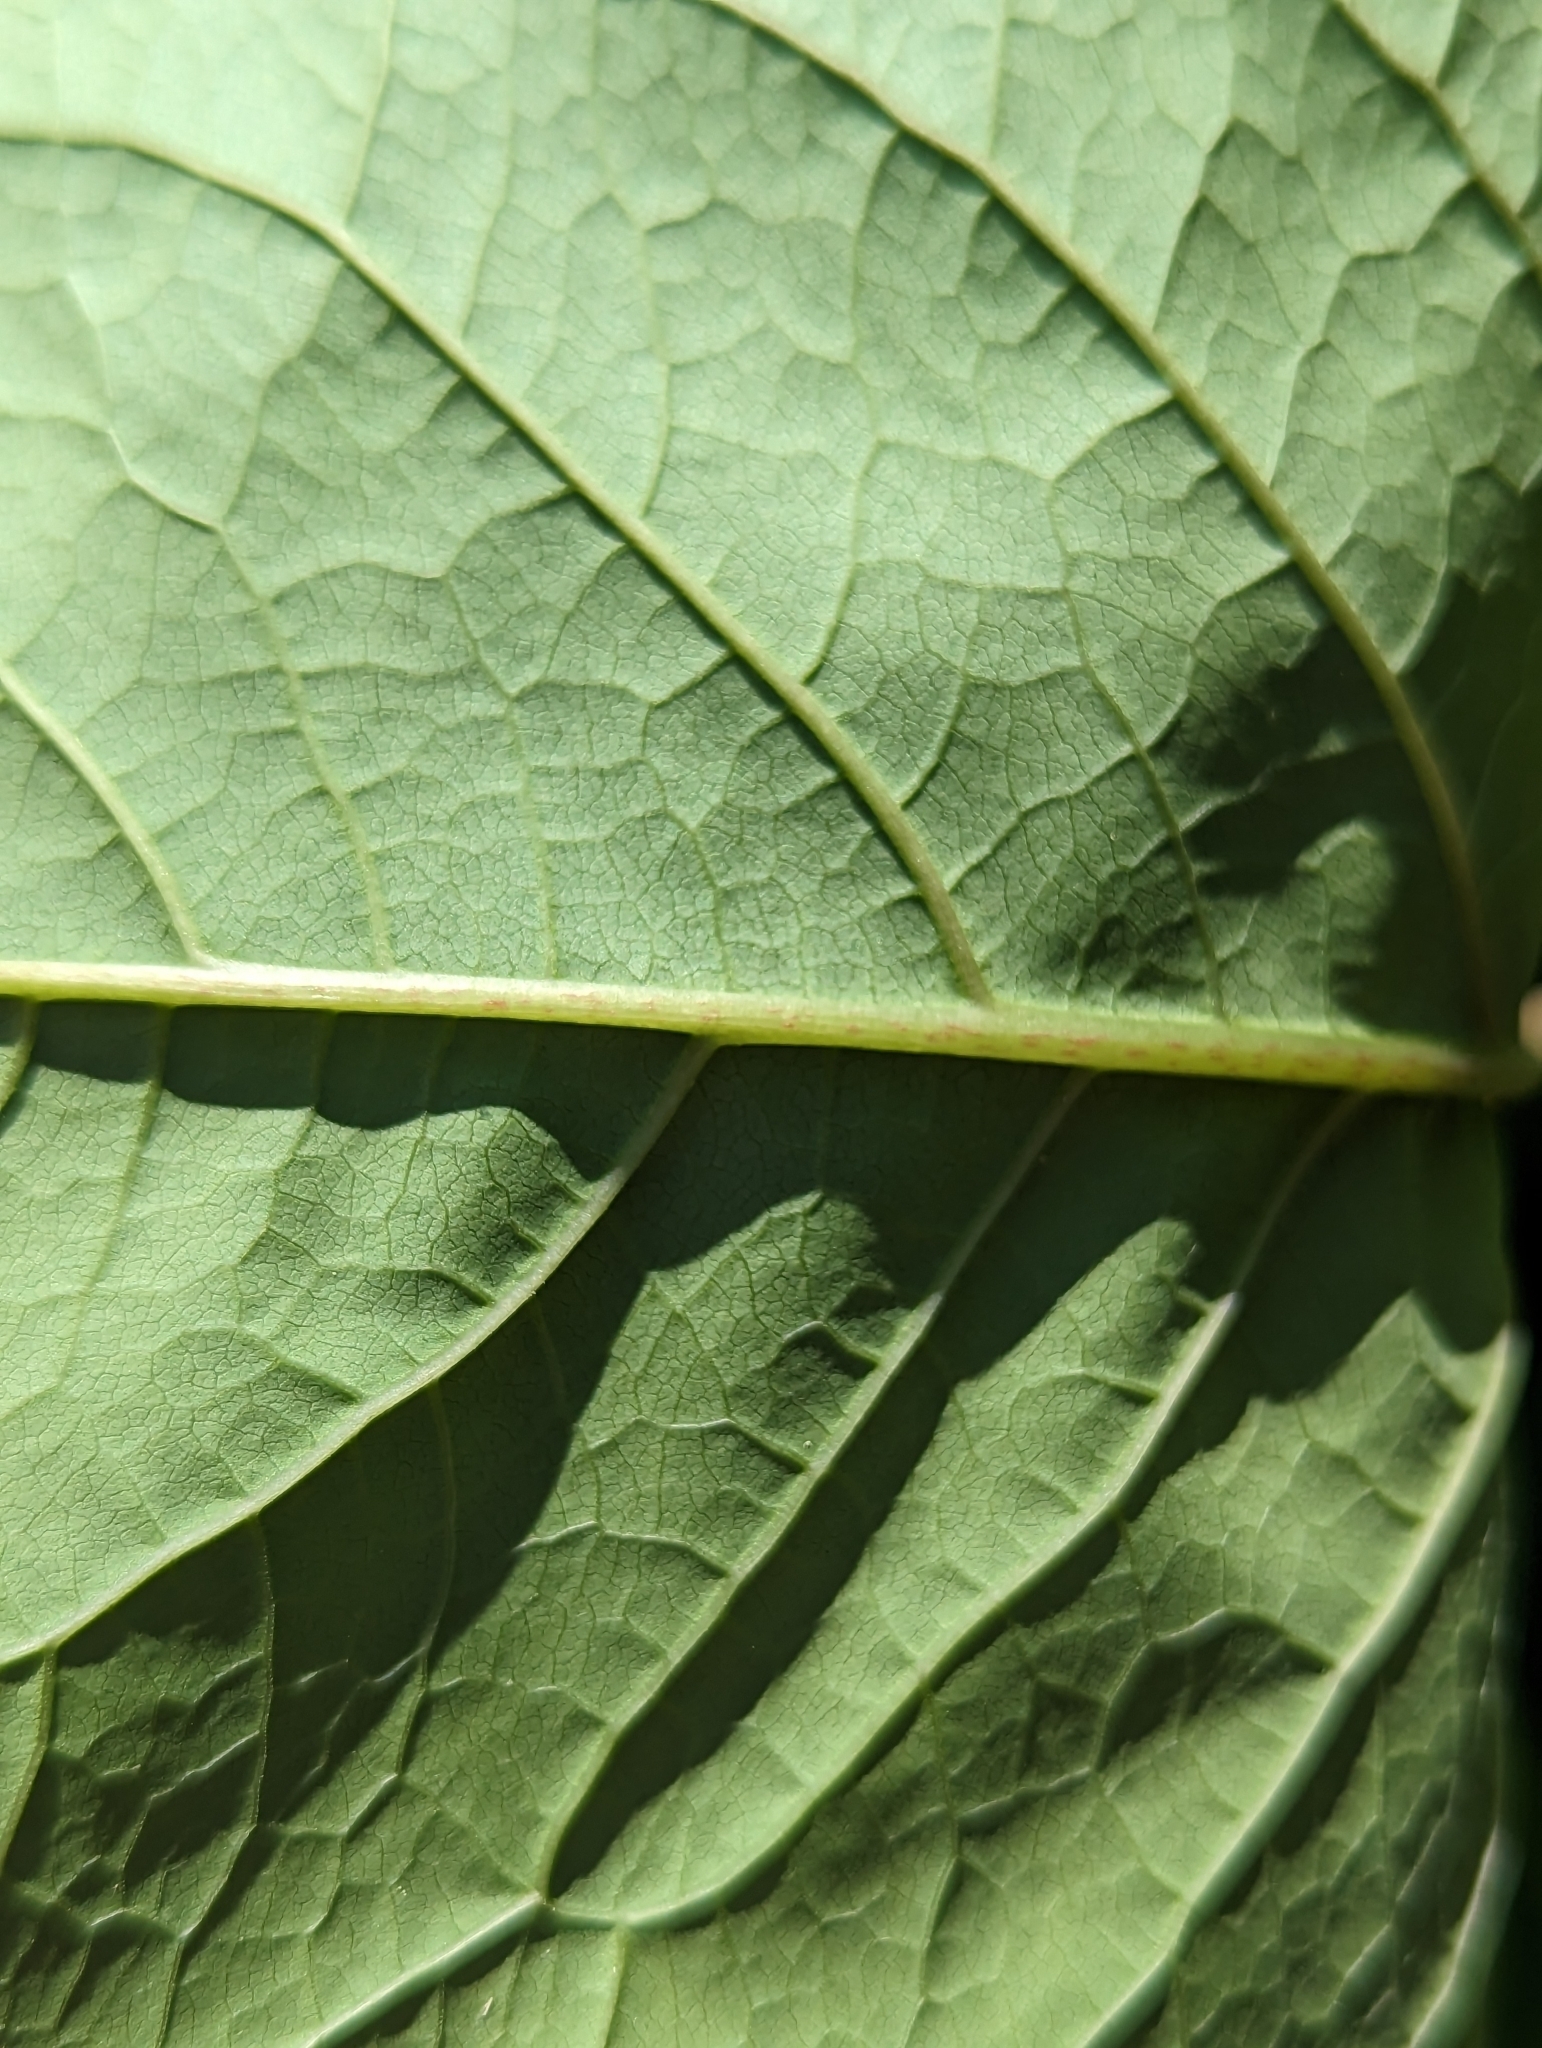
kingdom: Plantae
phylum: Tracheophyta
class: Magnoliopsida
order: Caryophyllales
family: Polygonaceae
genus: Reynoutria
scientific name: Reynoutria japonica
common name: Japanese knotweed
